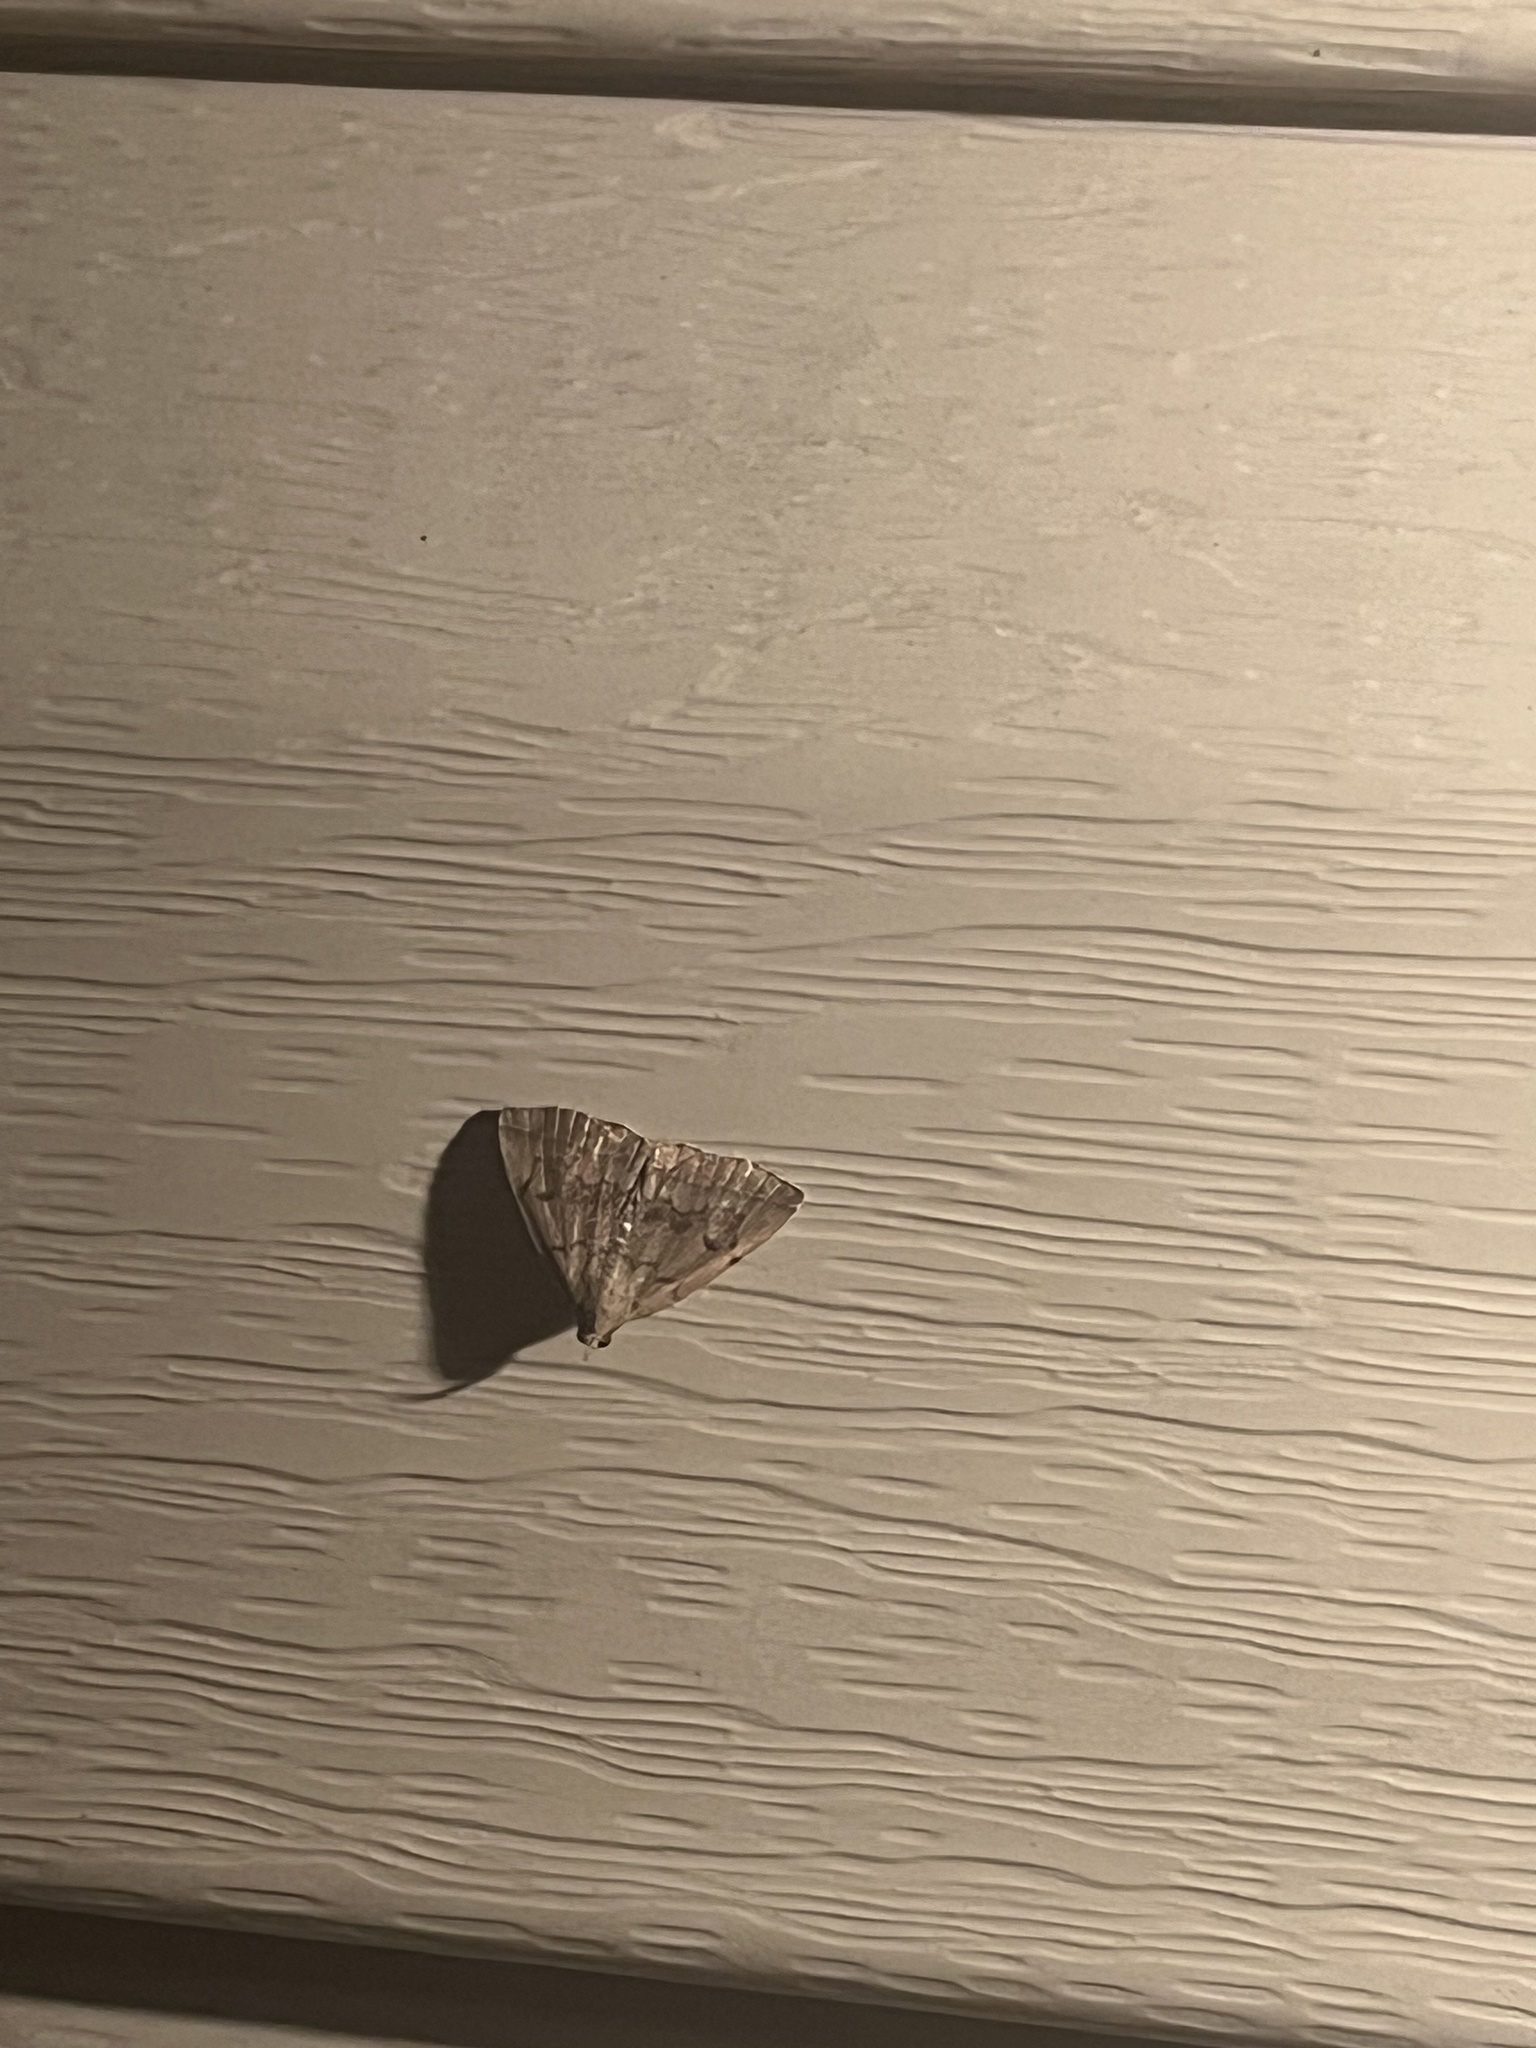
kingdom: Animalia
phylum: Arthropoda
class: Insecta
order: Lepidoptera
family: Erebidae
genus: Idia
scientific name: Idia aemula
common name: Common idia moth
